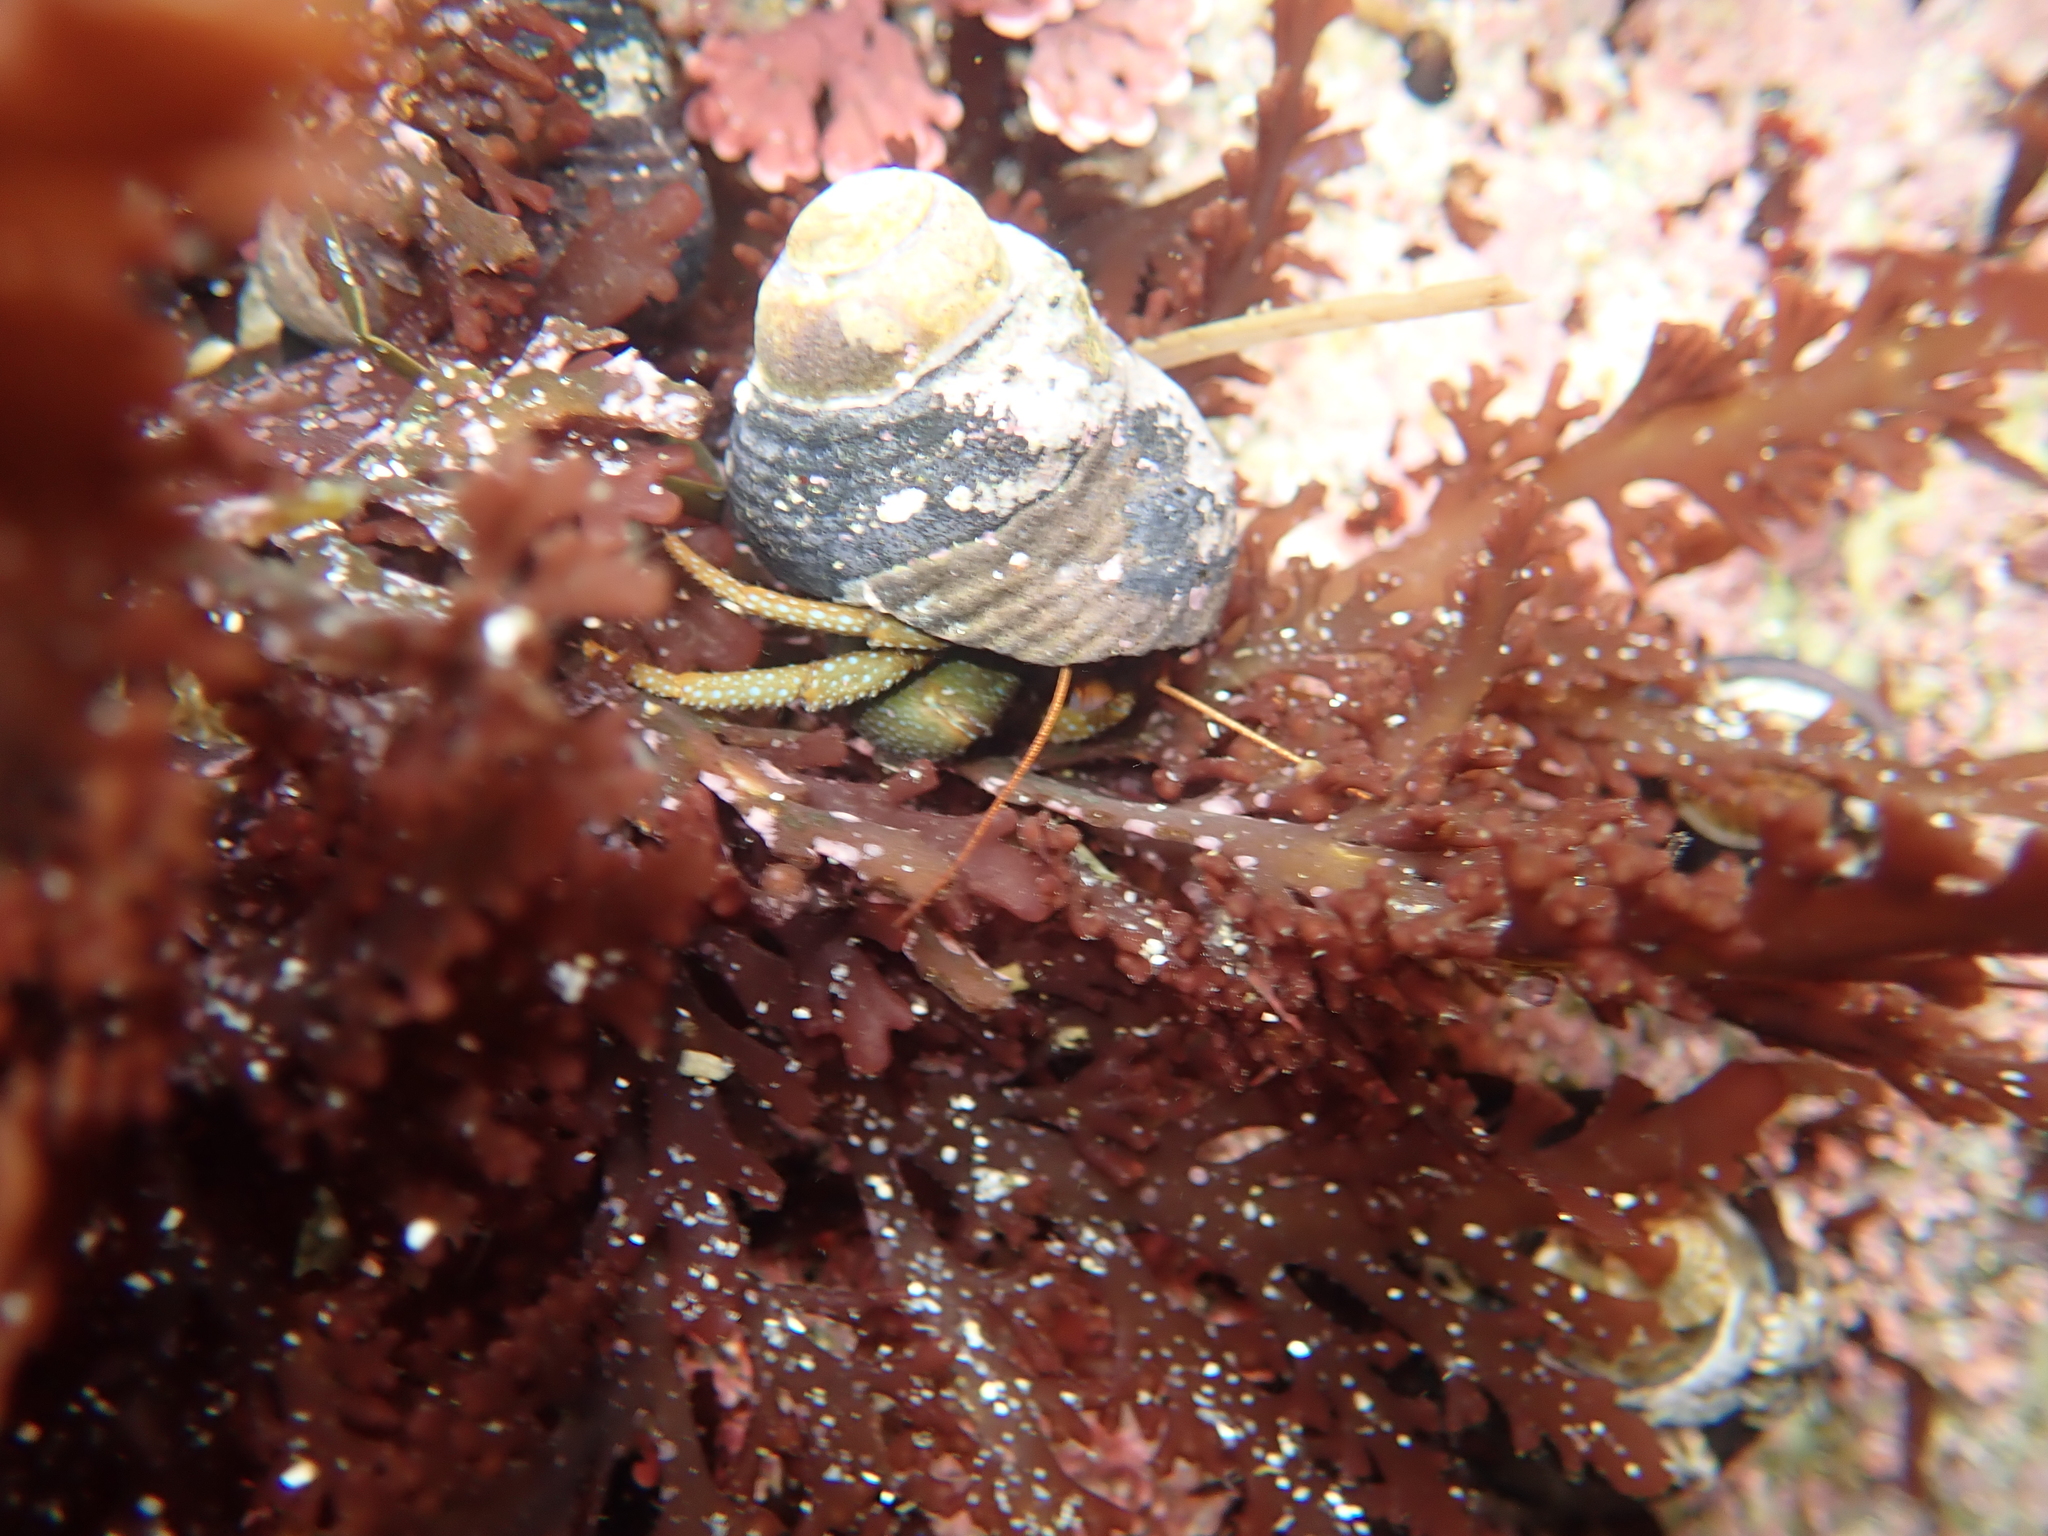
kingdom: Animalia
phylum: Arthropoda
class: Malacostraca
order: Decapoda
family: Paguridae
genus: Pagurus
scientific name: Pagurus granosimanus
